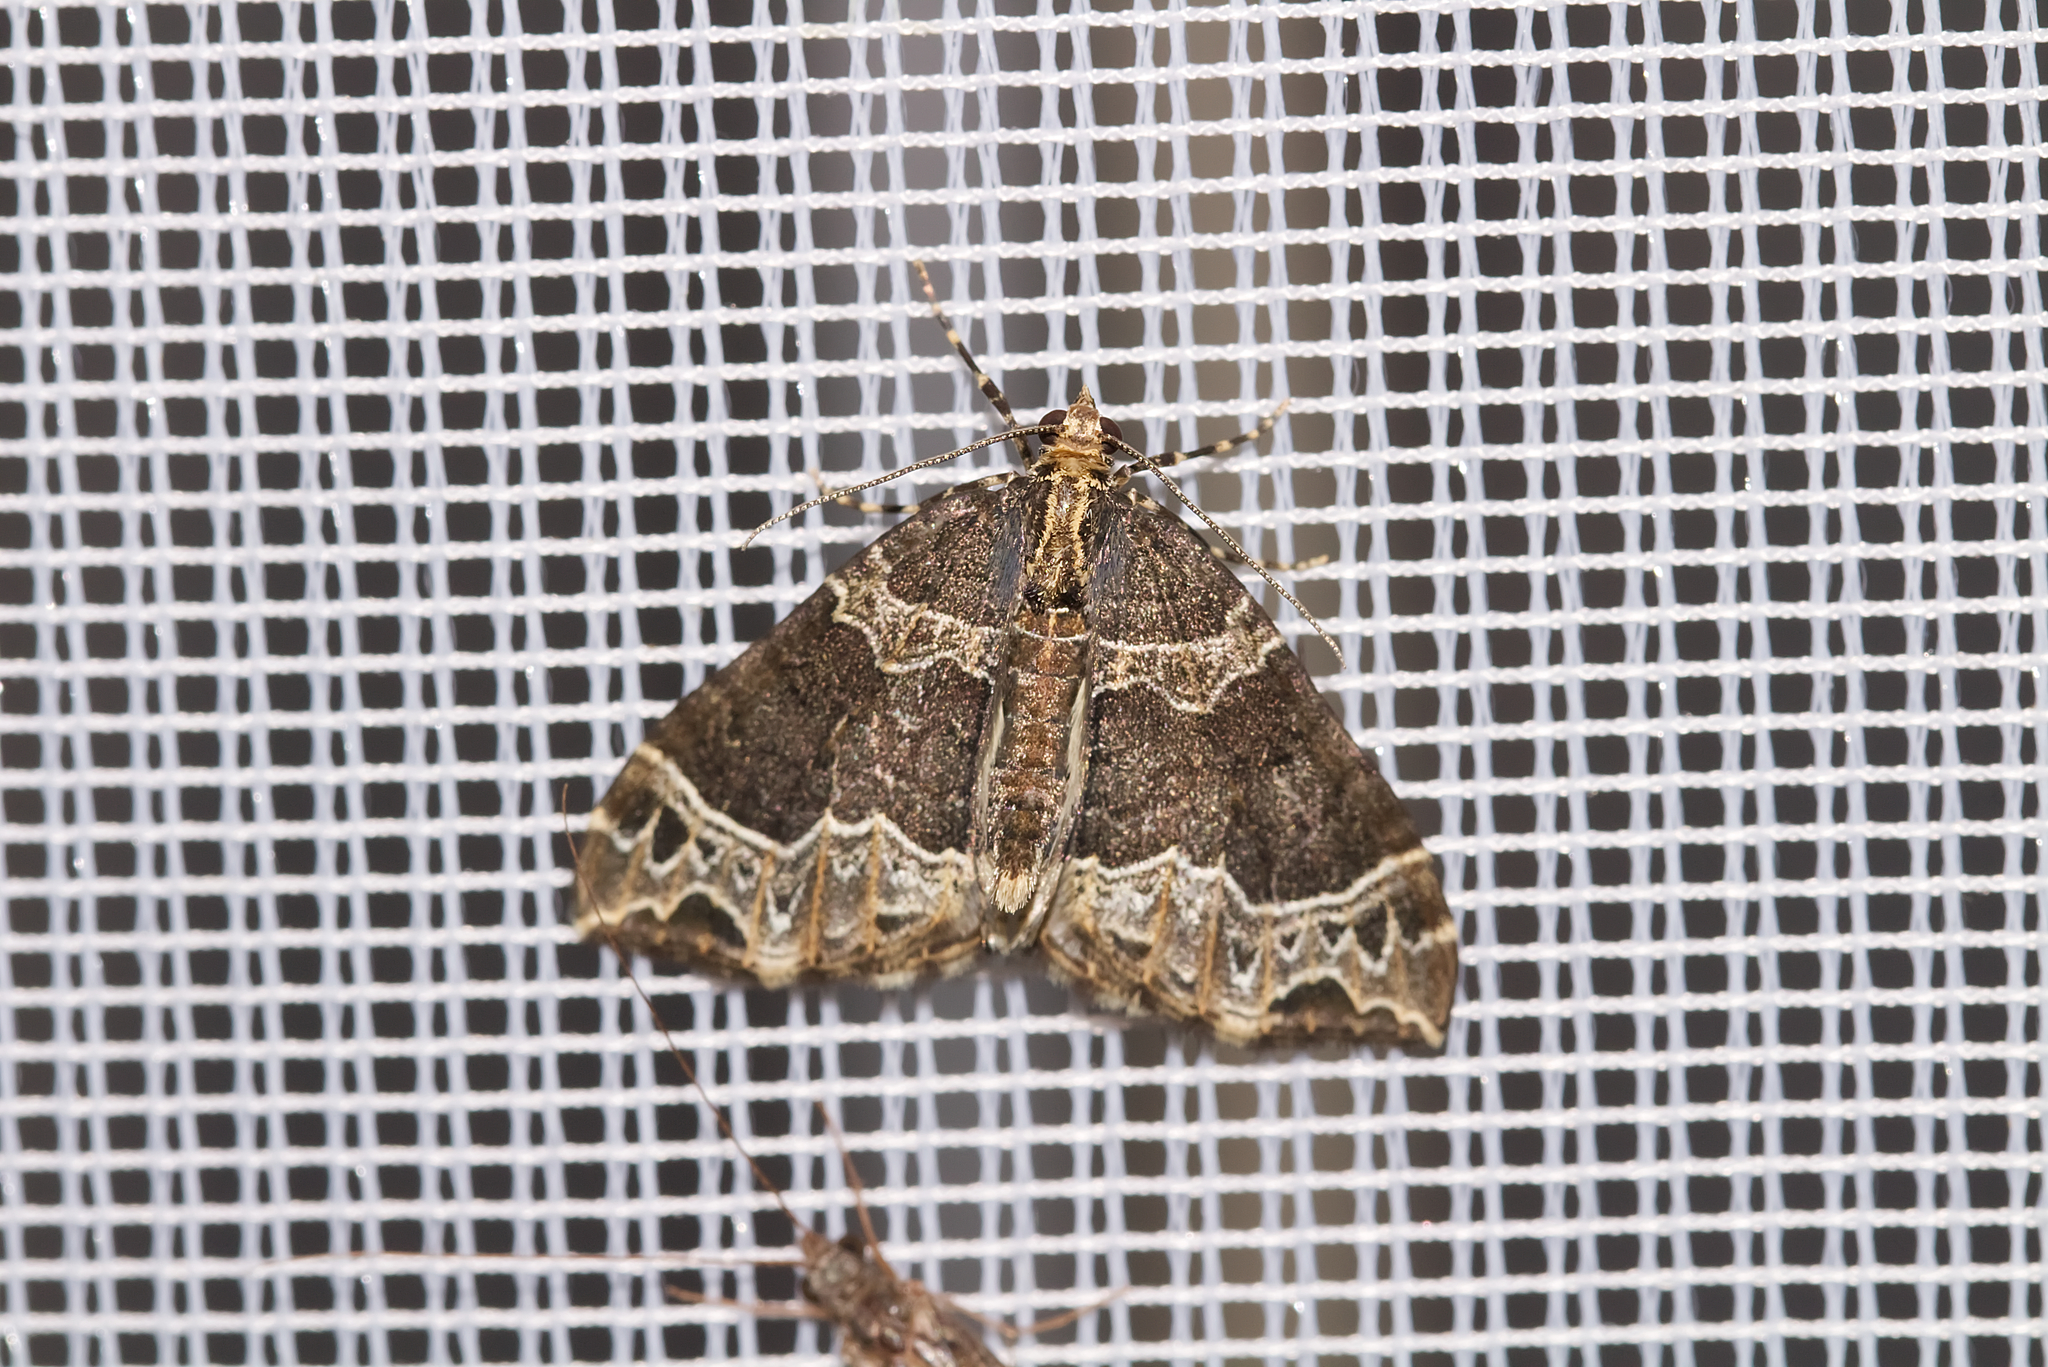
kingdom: Animalia
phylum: Arthropoda
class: Insecta
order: Lepidoptera
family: Geometridae
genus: Ecliptopera
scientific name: Ecliptopera silaceata
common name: Small phoenix
